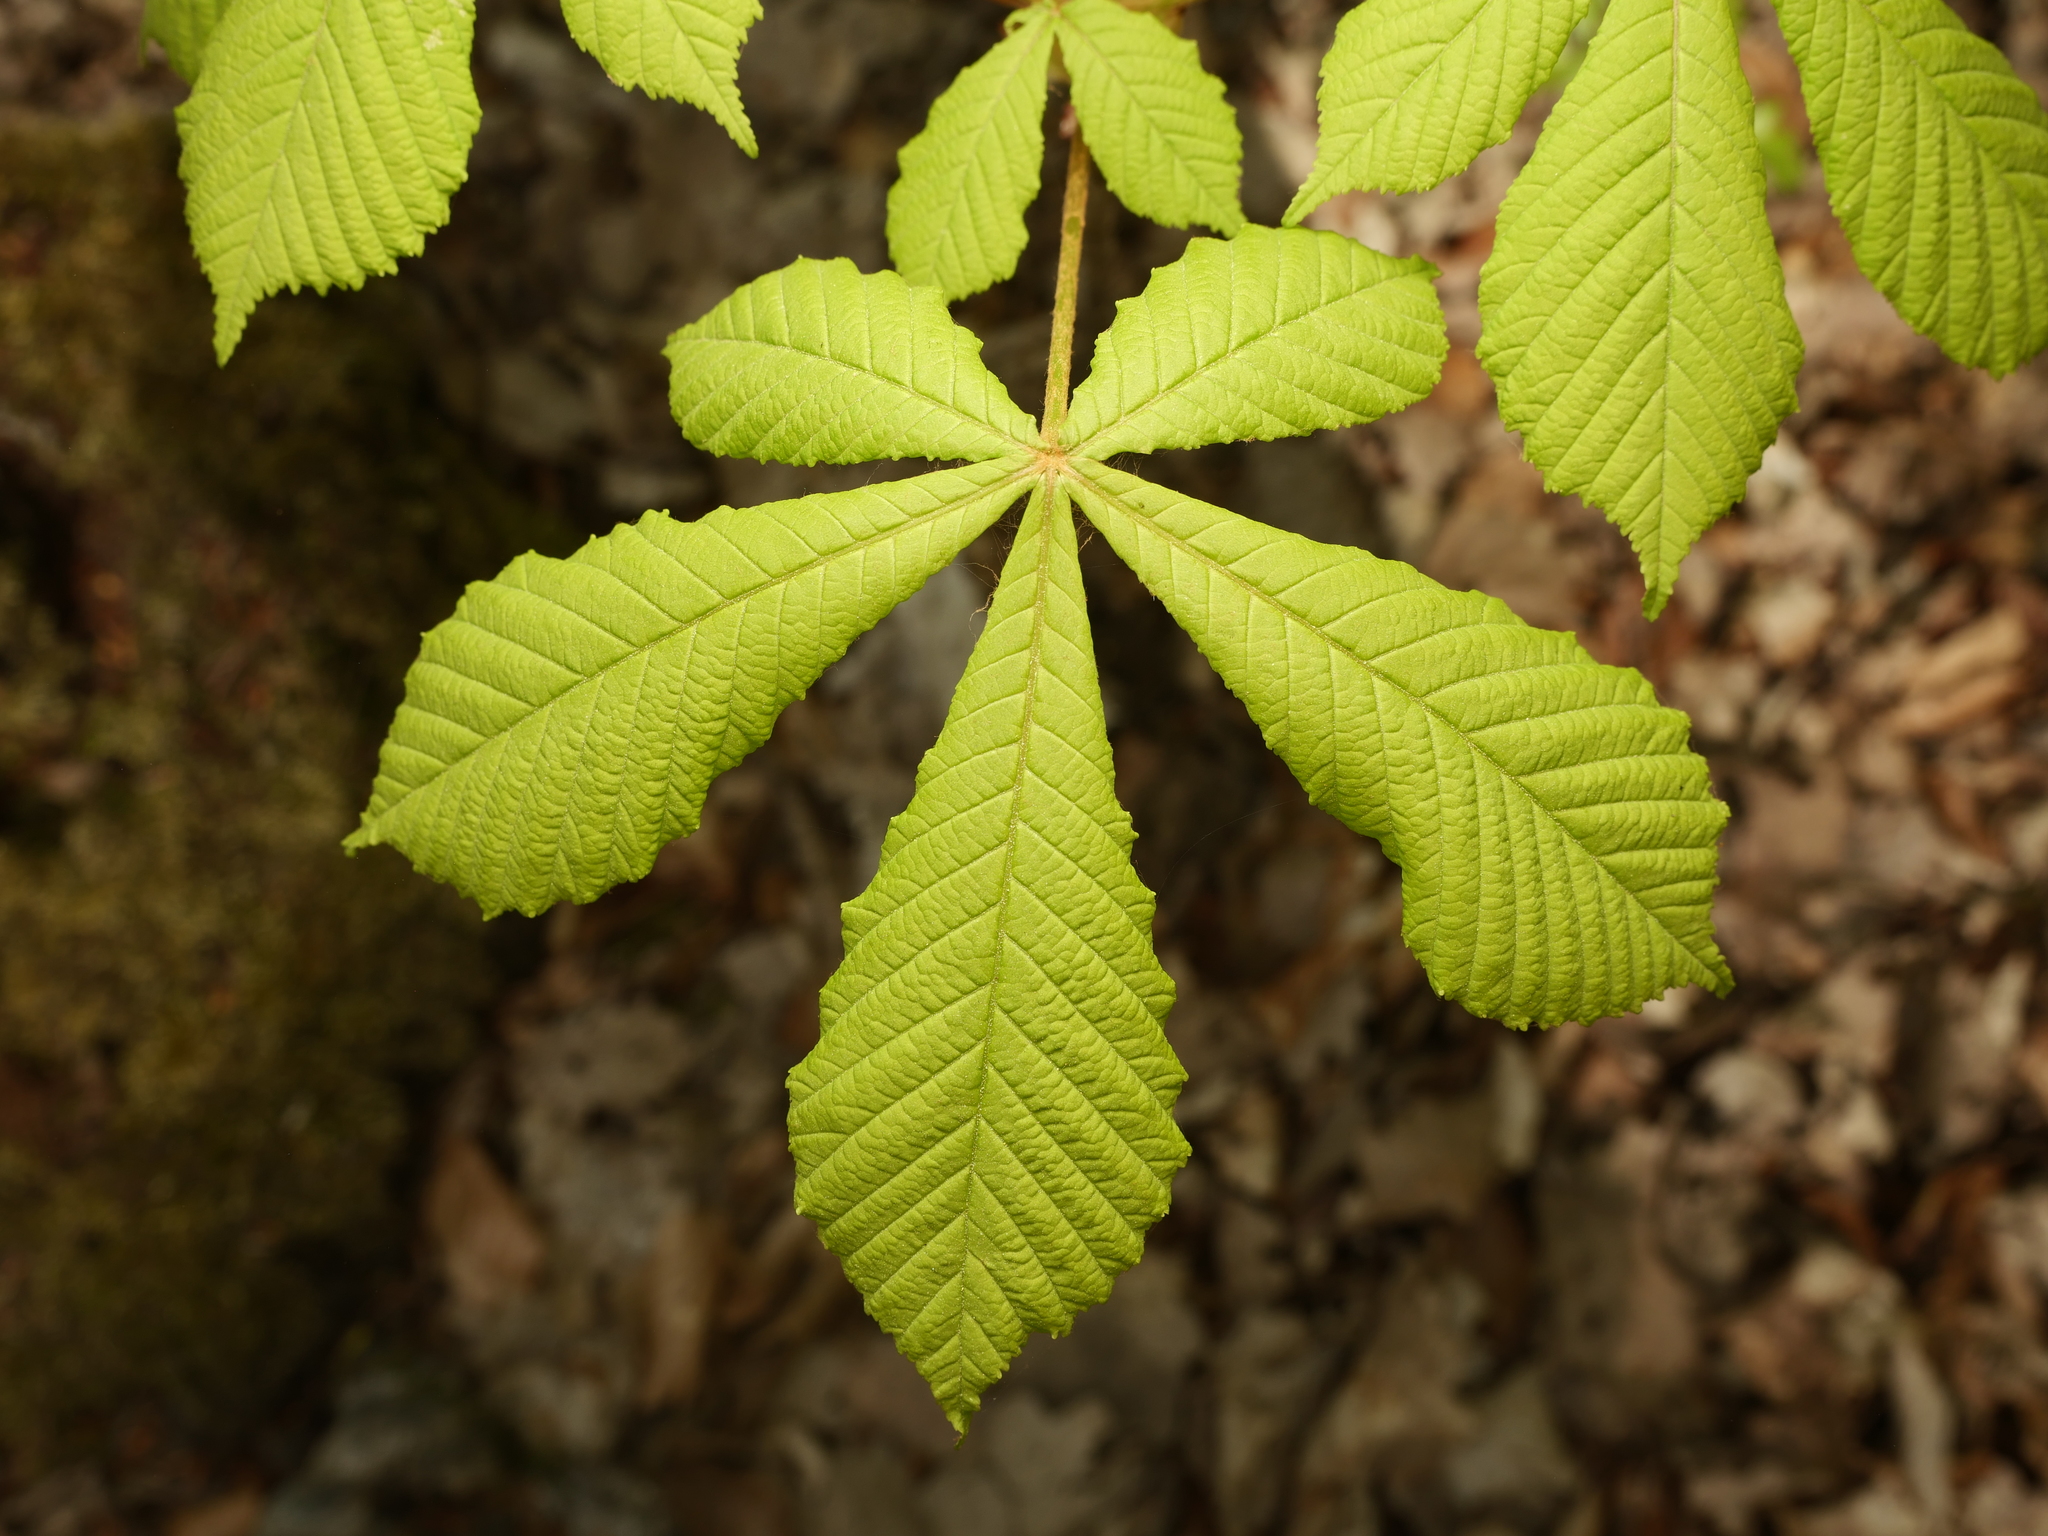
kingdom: Plantae
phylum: Tracheophyta
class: Magnoliopsida
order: Sapindales
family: Sapindaceae
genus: Aesculus
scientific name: Aesculus hippocastanum
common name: Horse-chestnut
